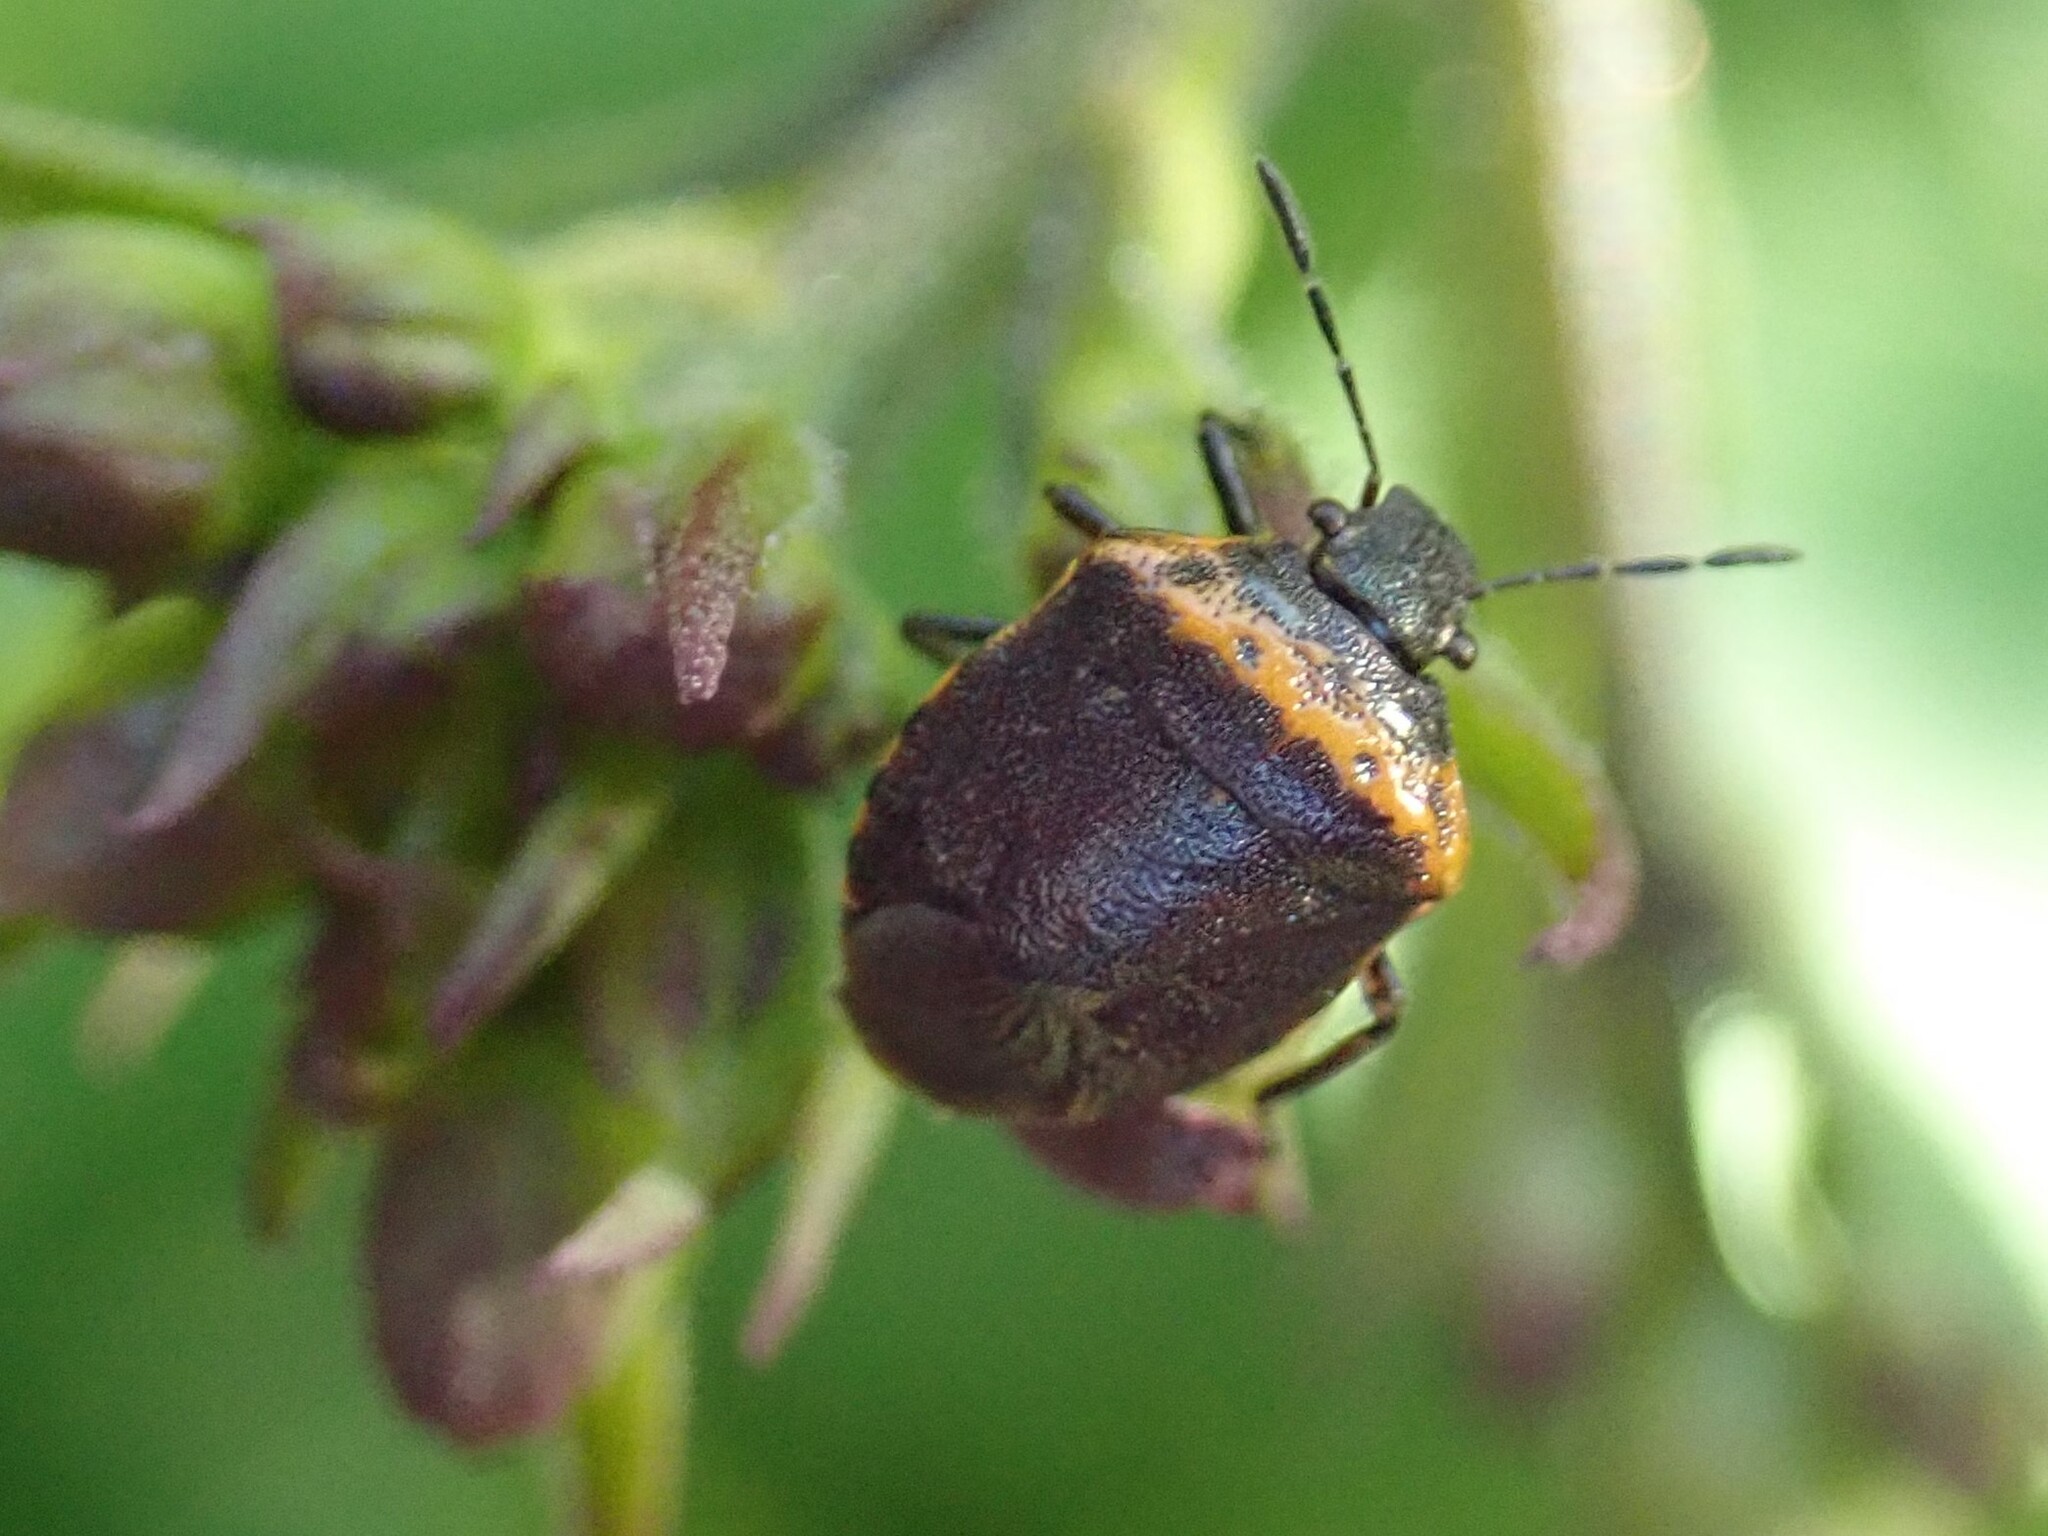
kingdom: Animalia
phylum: Arthropoda
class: Insecta
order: Hemiptera
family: Pentatomidae
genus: Cosmopepla
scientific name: Cosmopepla uhleri
